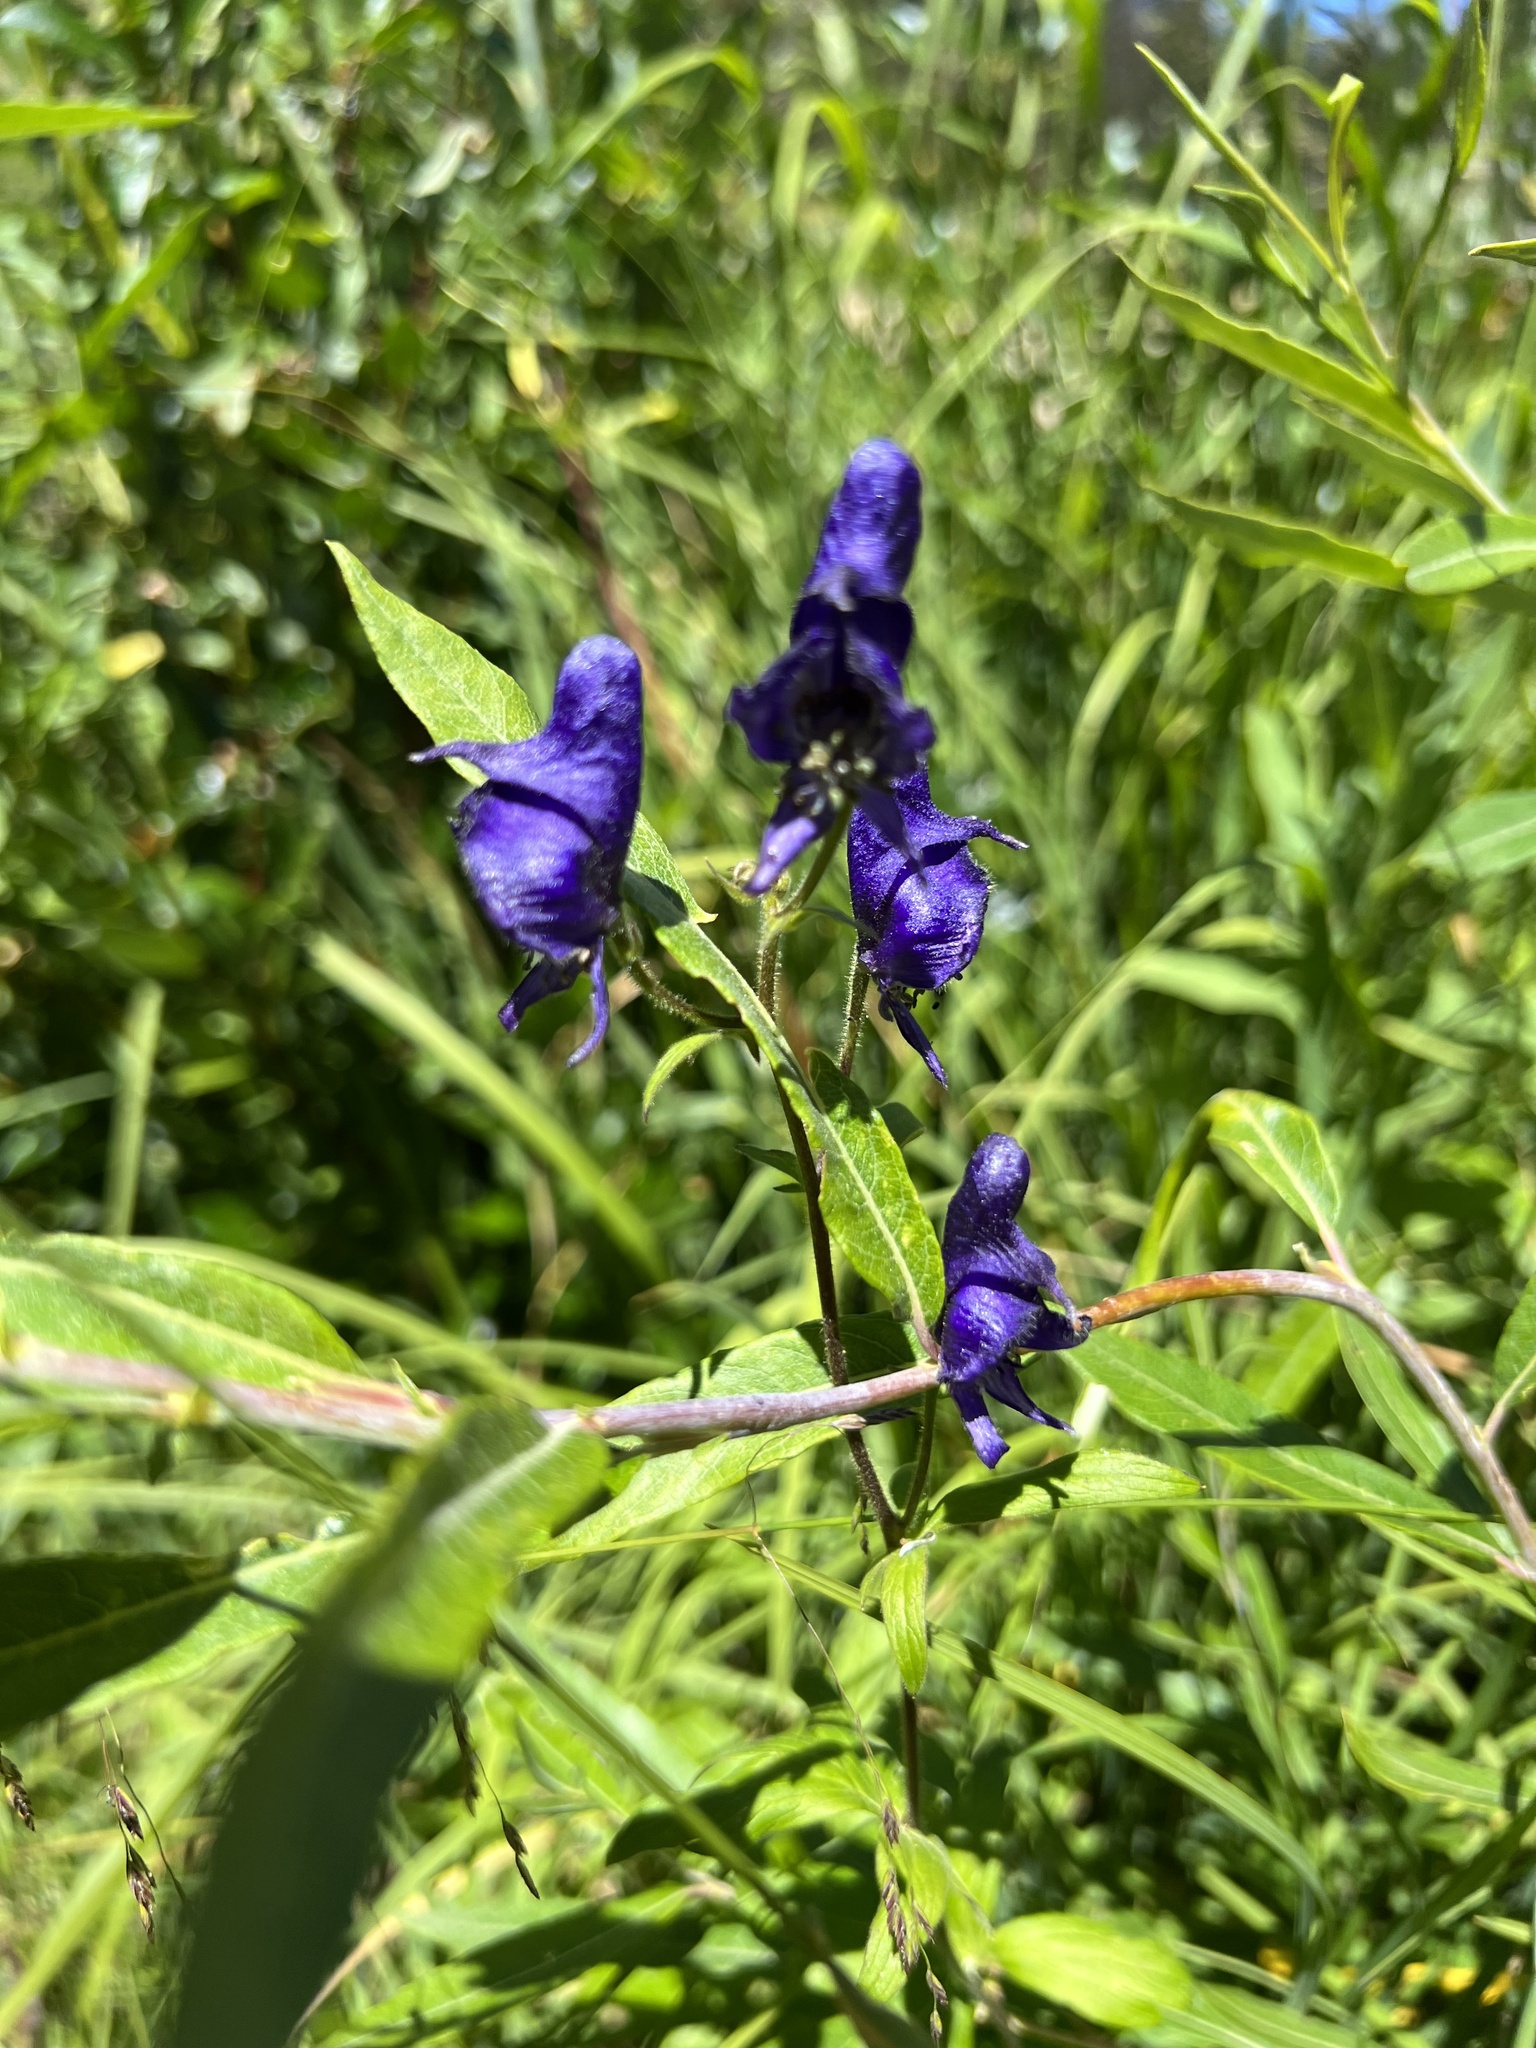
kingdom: Plantae
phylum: Tracheophyta
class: Magnoliopsida
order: Ranunculales
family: Ranunculaceae
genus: Aconitum
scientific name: Aconitum columbianum
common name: Columbia aconite
